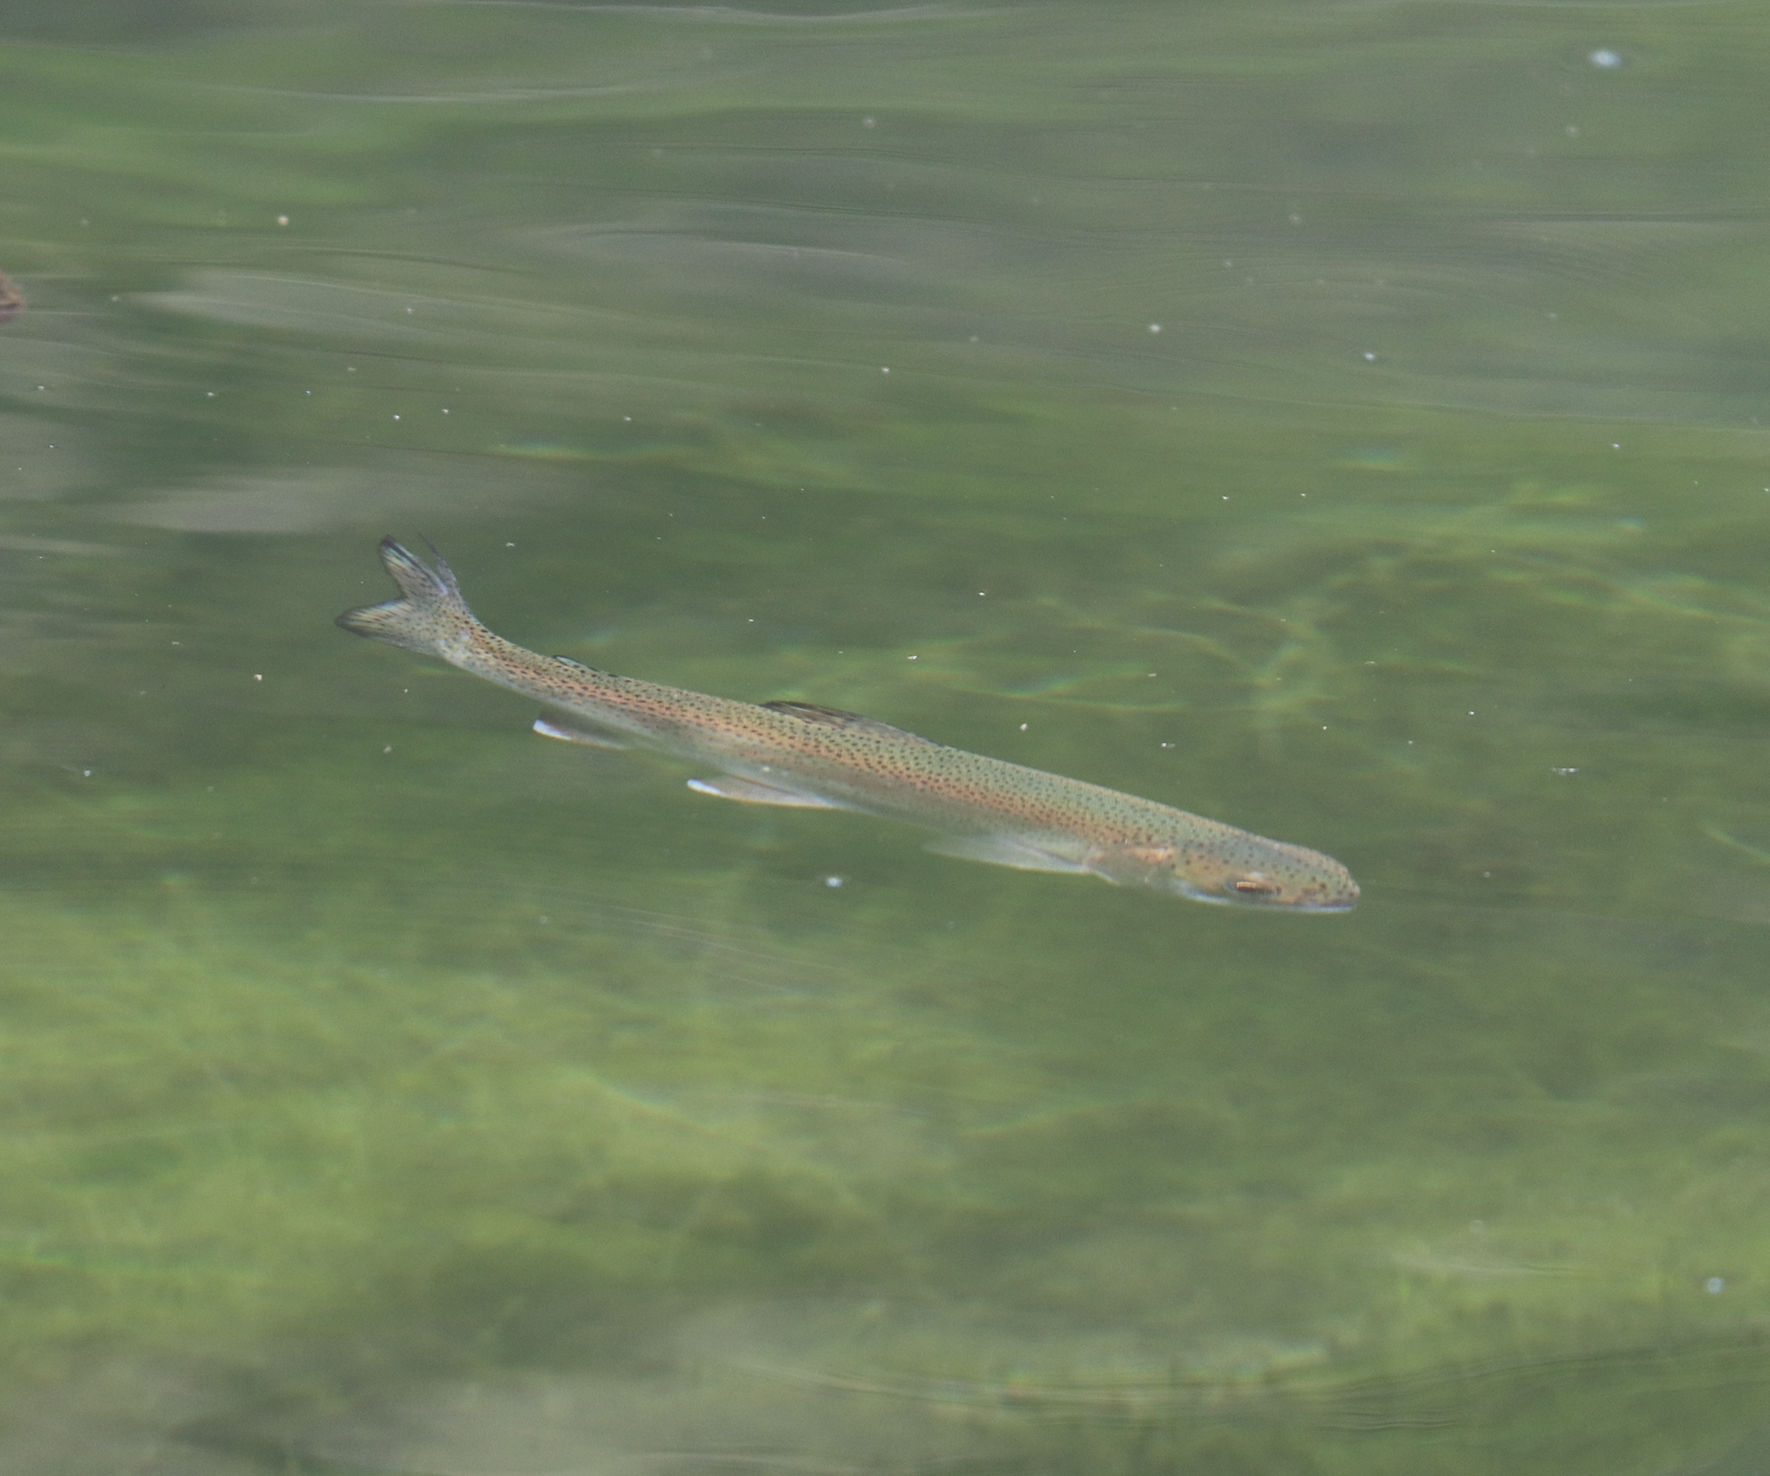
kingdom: Animalia
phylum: Chordata
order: Salmoniformes
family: Salmonidae
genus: Oncorhynchus
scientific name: Oncorhynchus mykiss
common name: Rainbow trout
